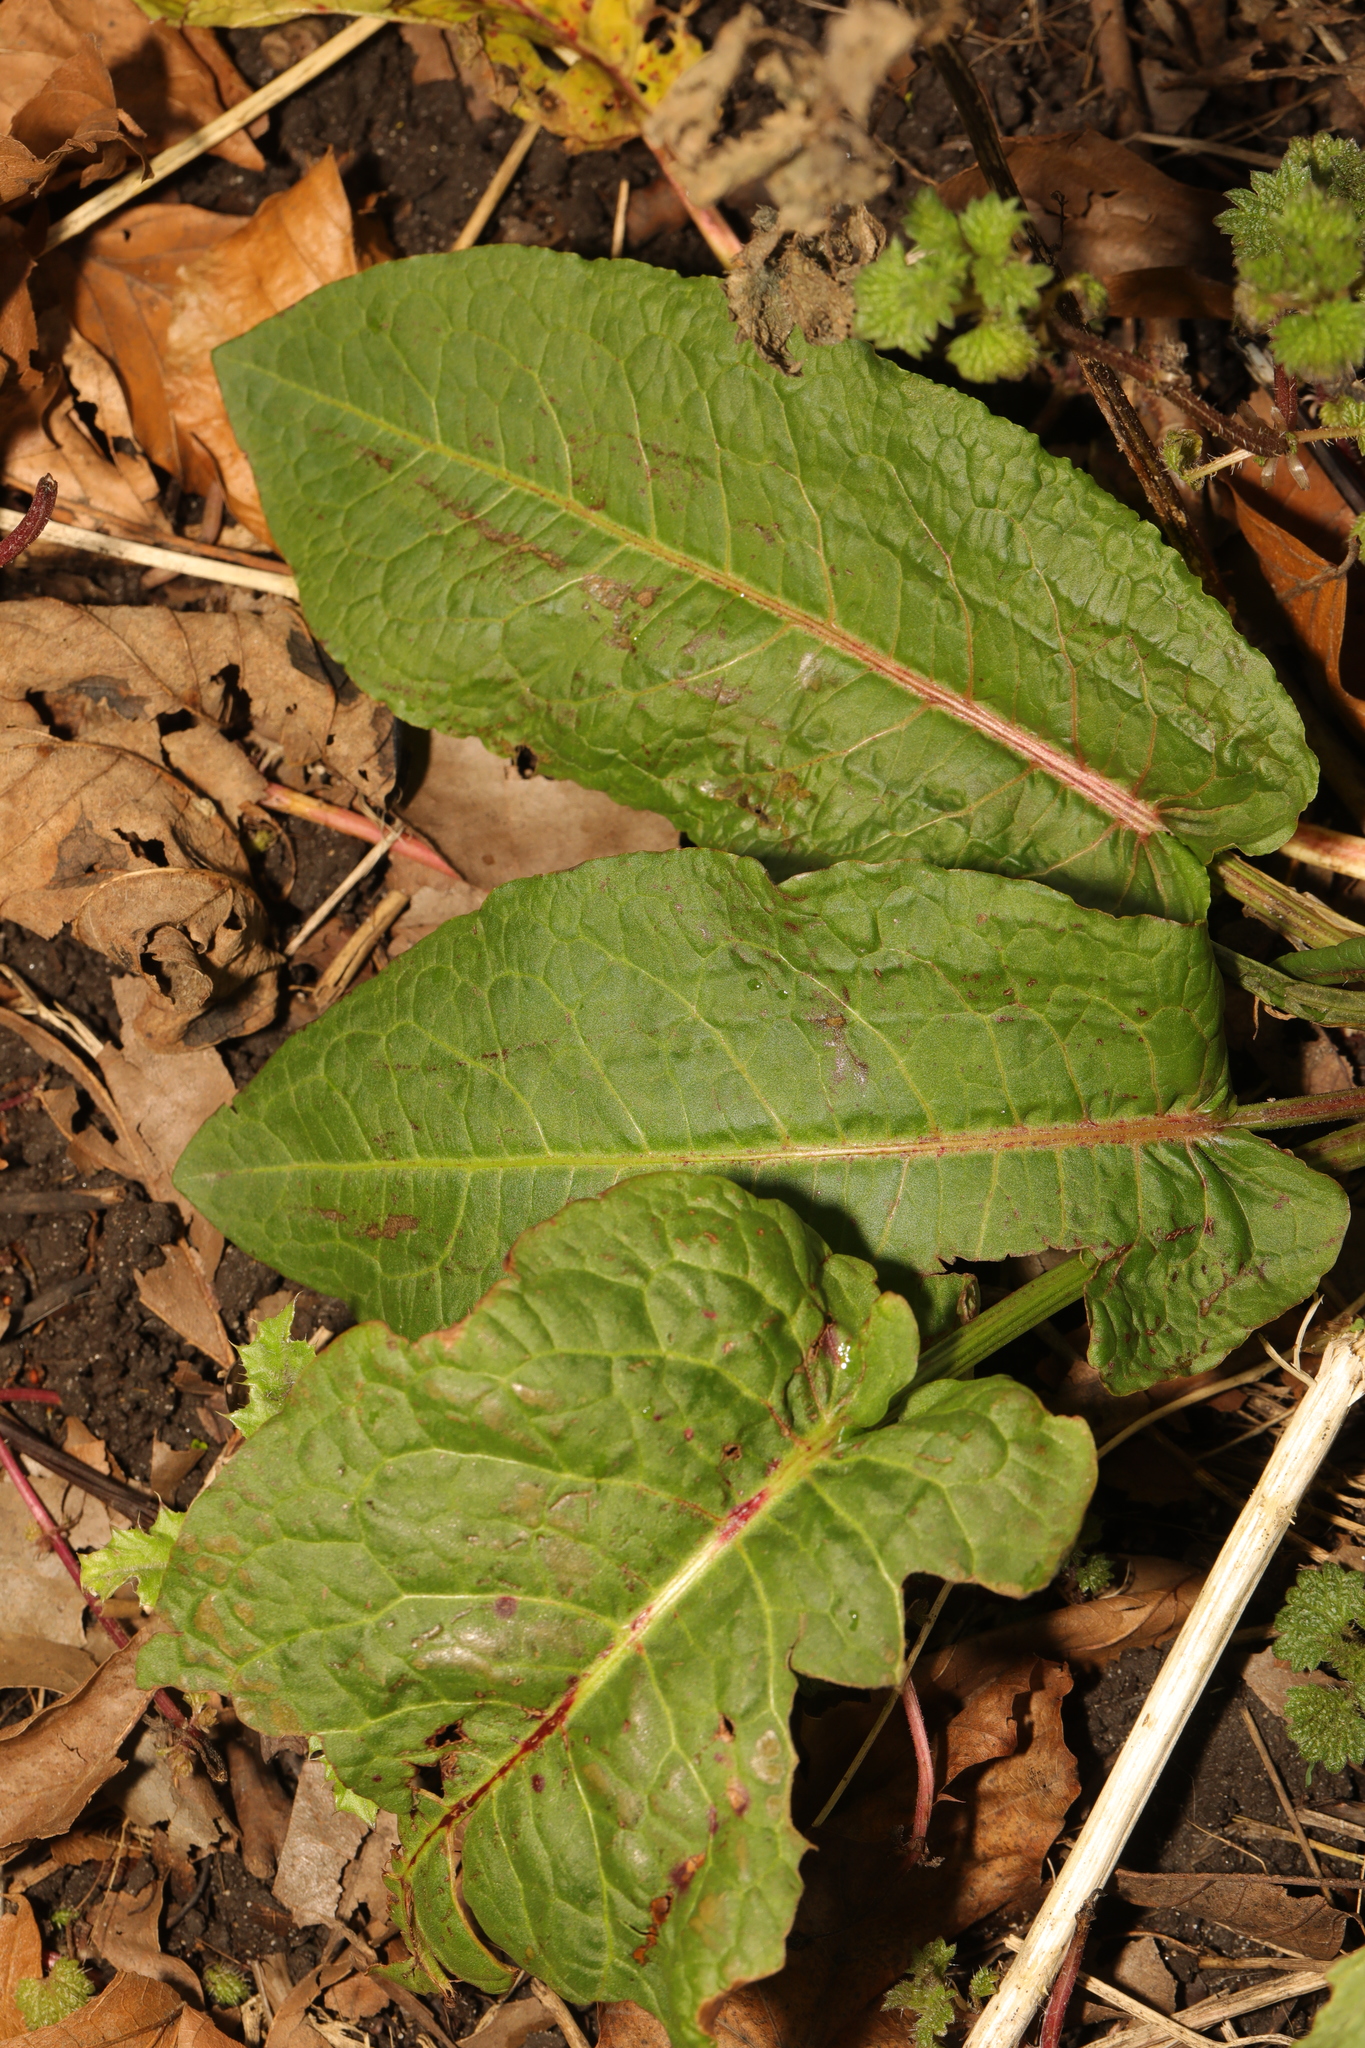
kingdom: Plantae
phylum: Tracheophyta
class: Magnoliopsida
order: Caryophyllales
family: Polygonaceae
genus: Rumex
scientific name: Rumex obtusifolius
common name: Bitter dock
